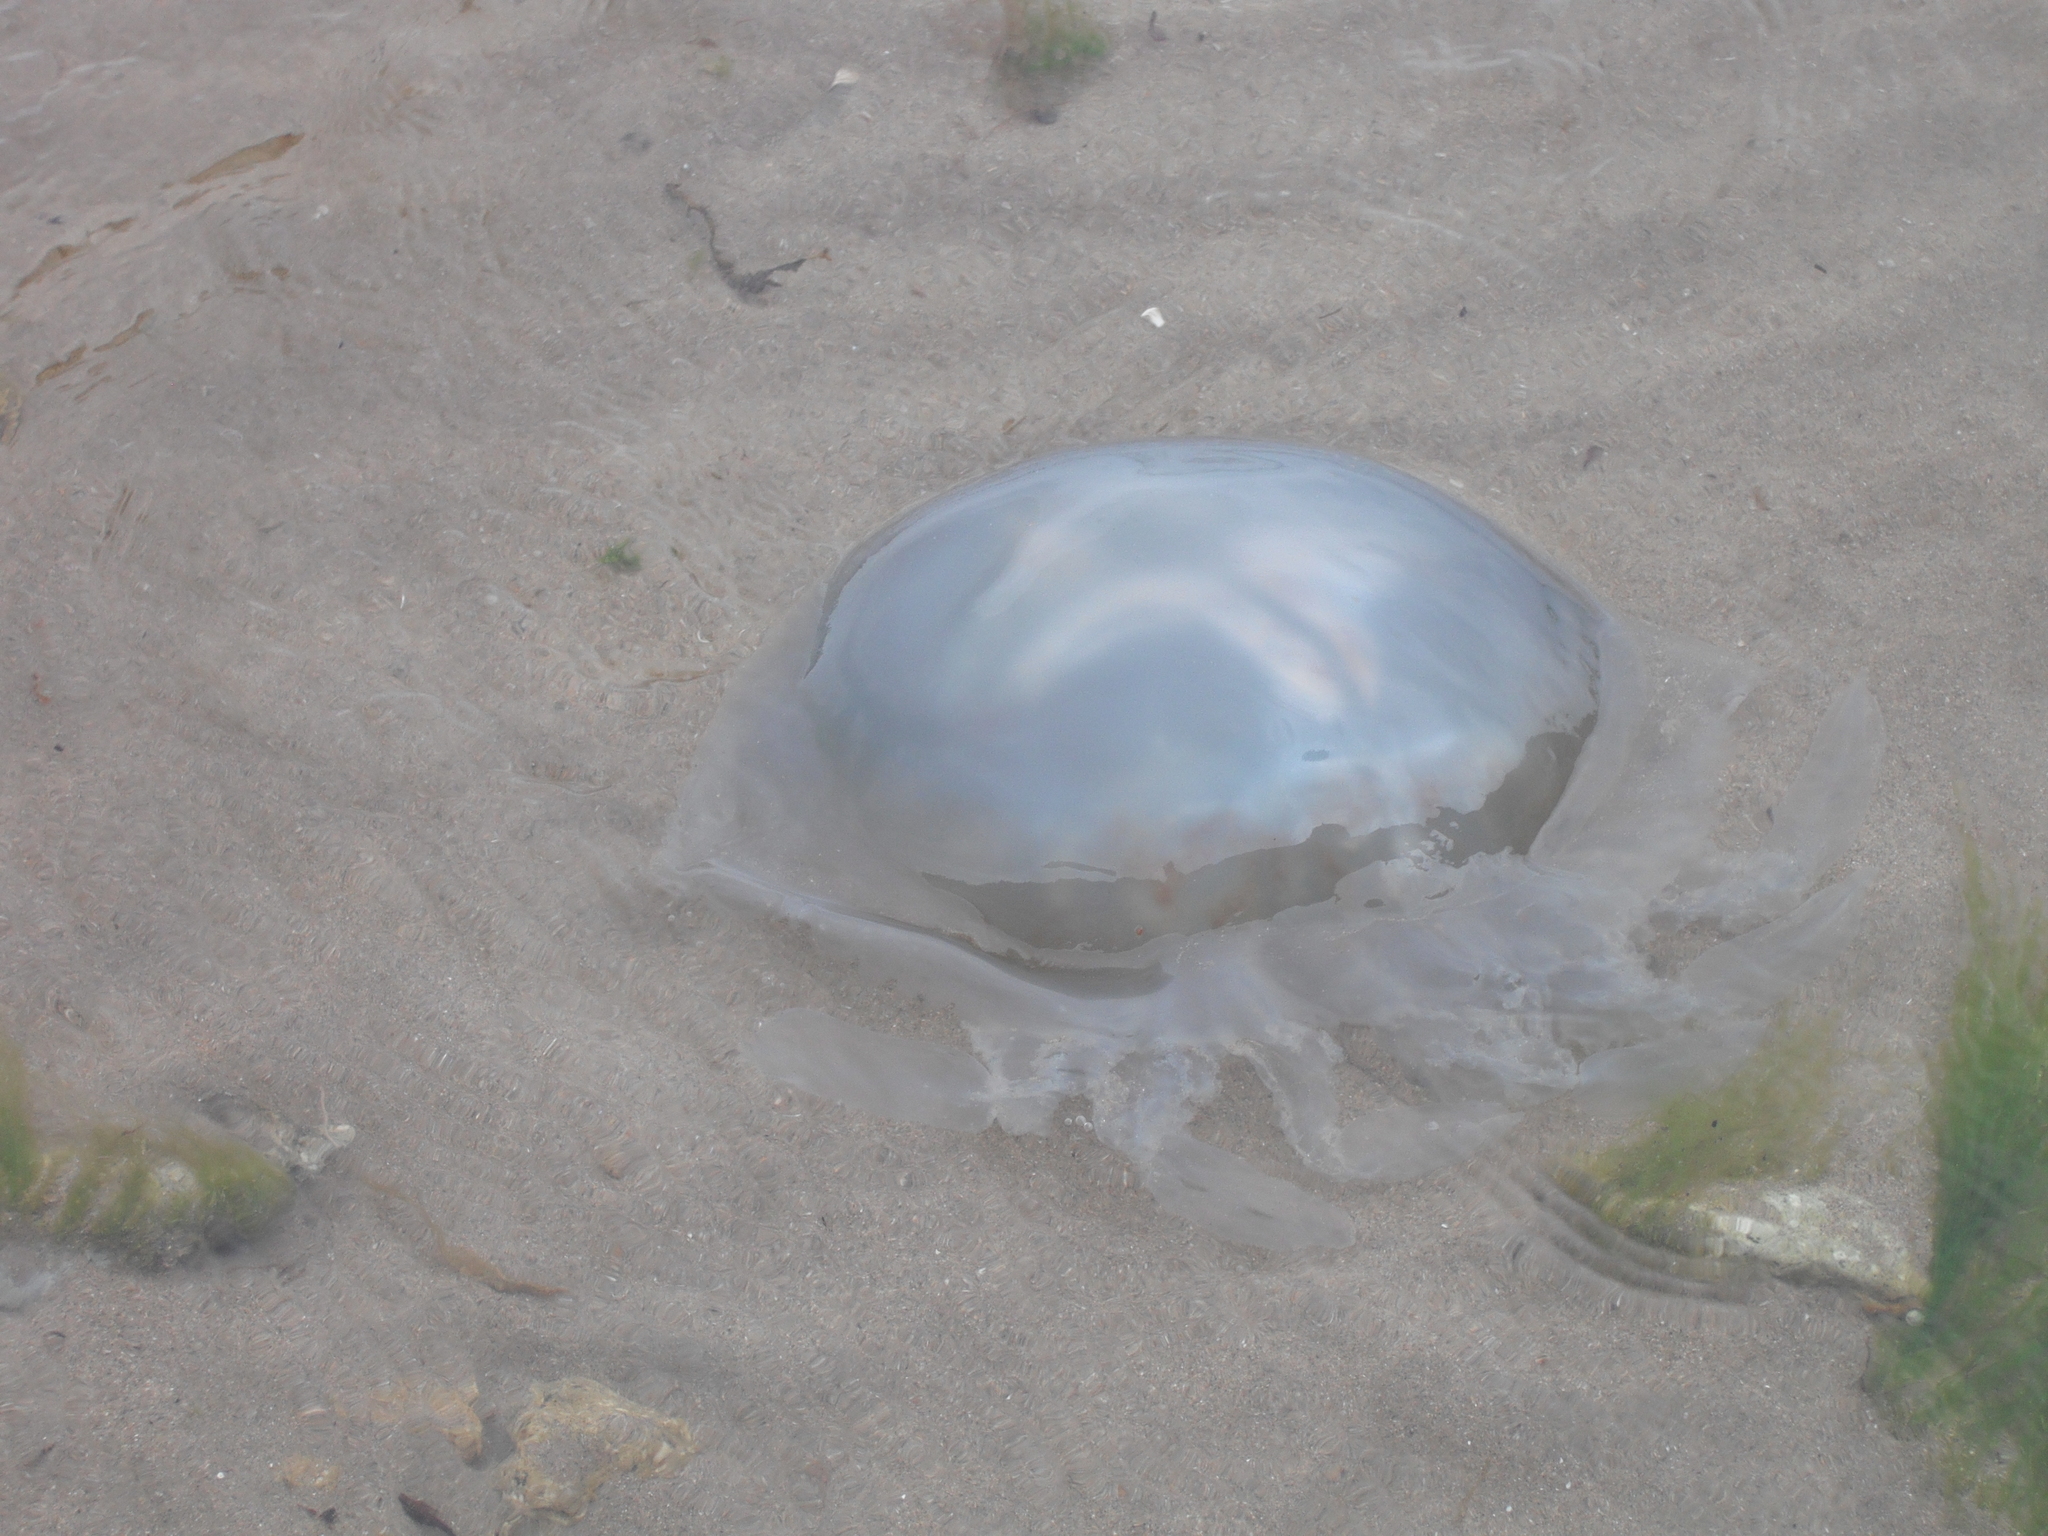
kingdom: Animalia
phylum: Cnidaria
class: Scyphozoa
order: Rhizostomeae
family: Rhizostomatidae
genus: Rhizostoma
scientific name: Rhizostoma octopus
